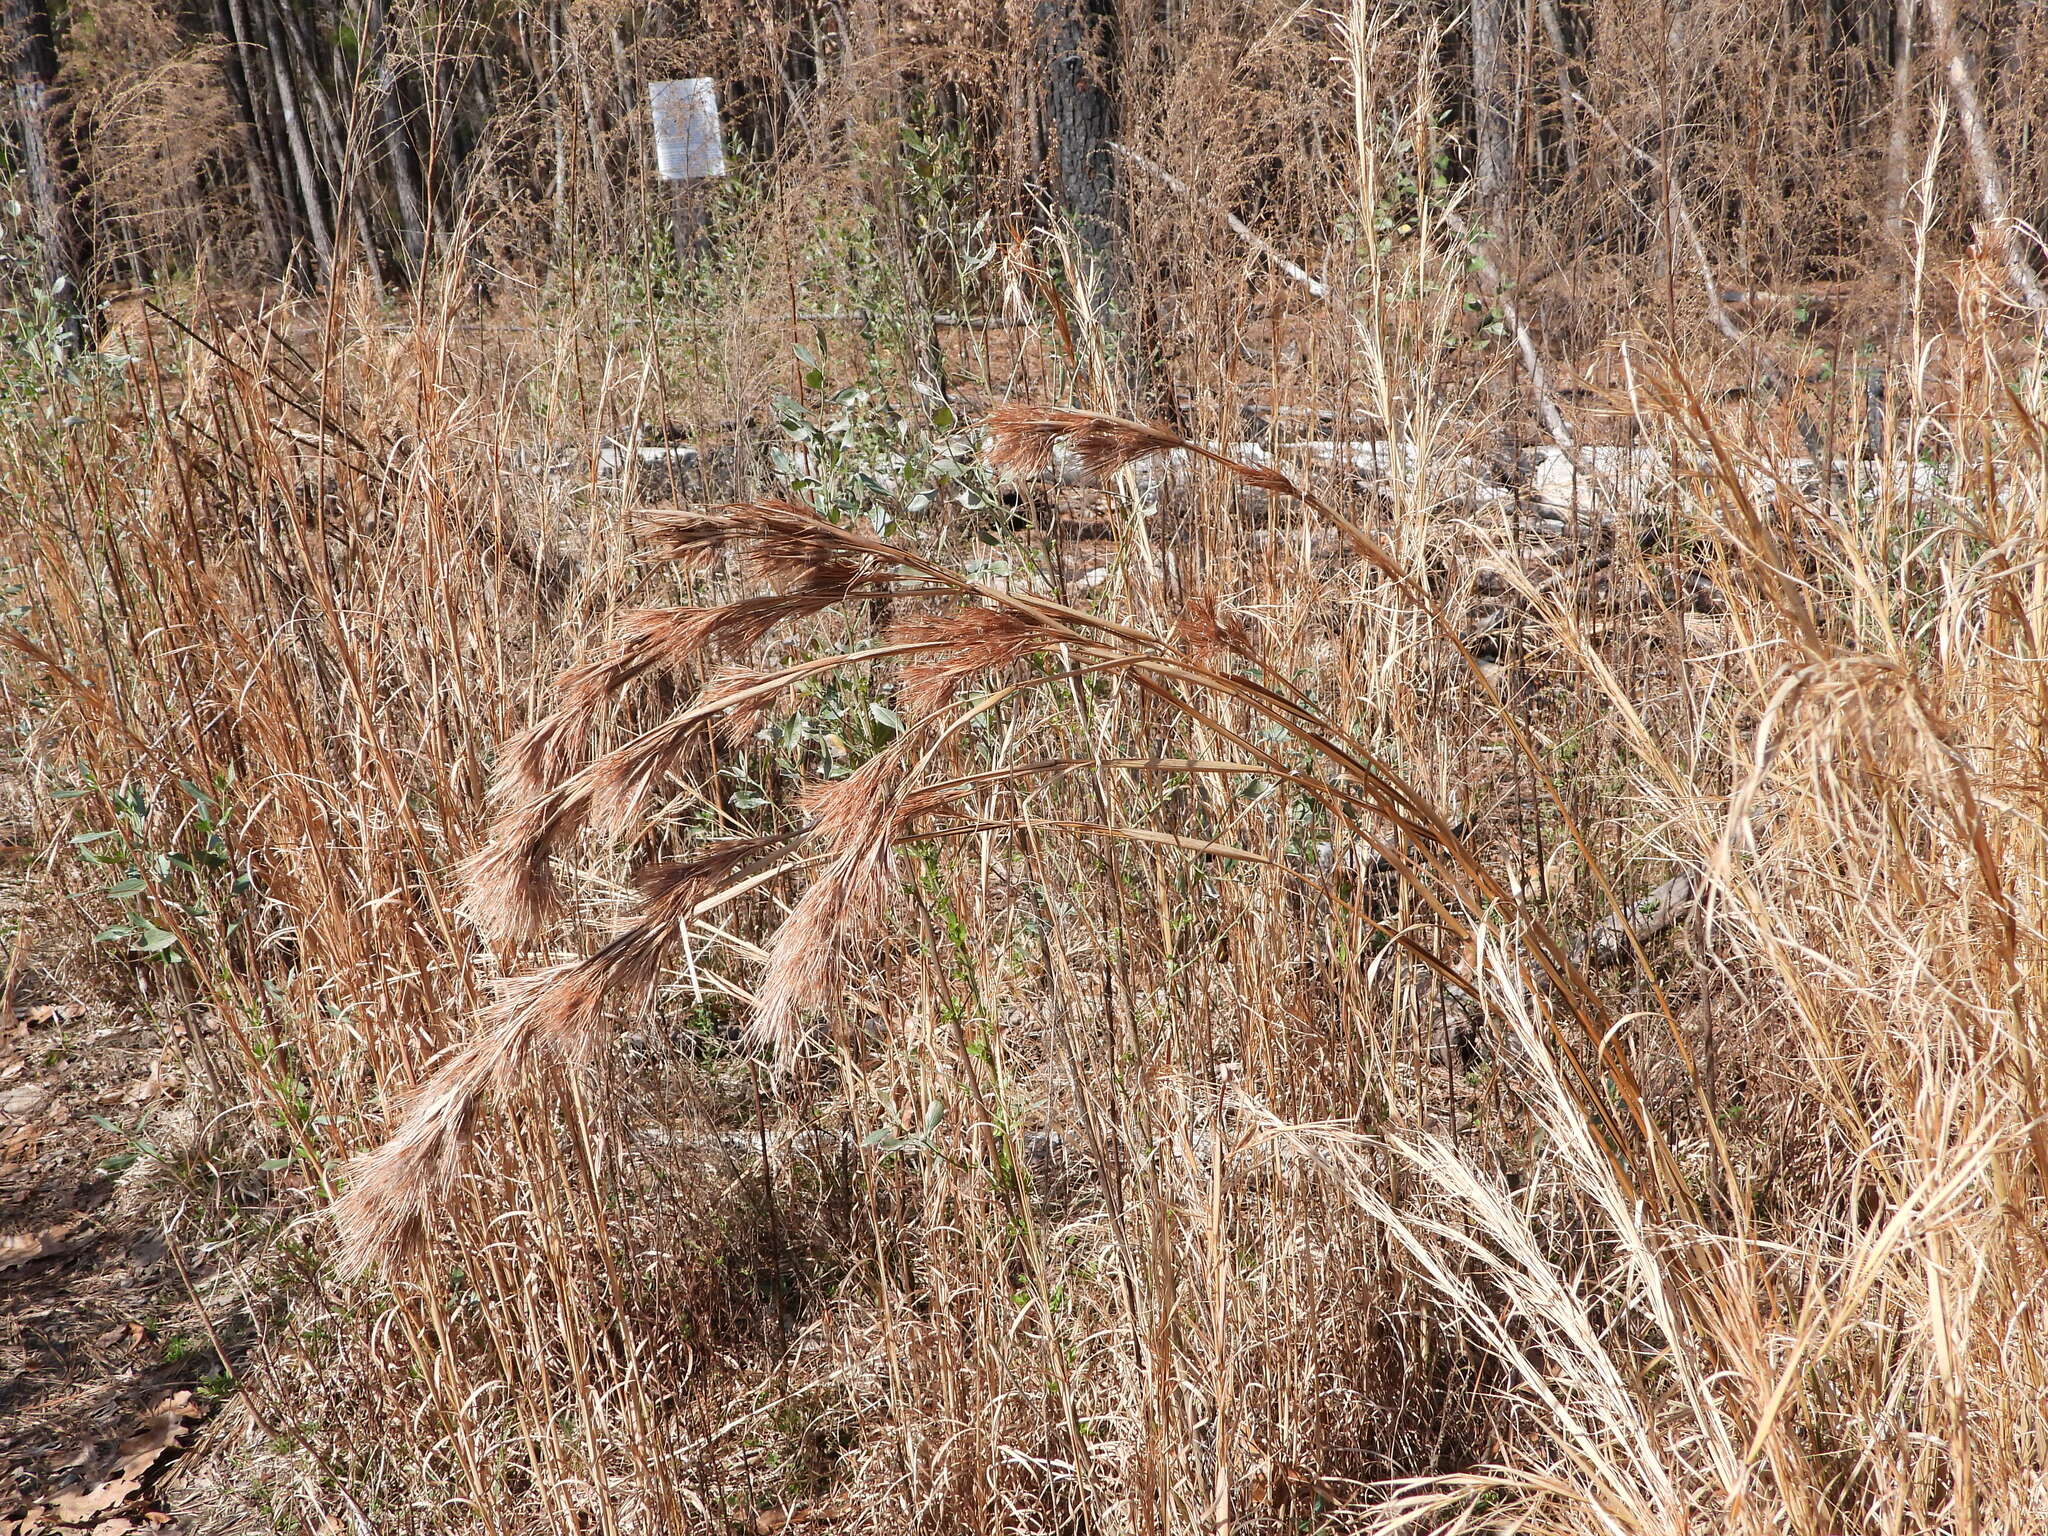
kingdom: Plantae
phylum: Tracheophyta
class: Liliopsida
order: Poales
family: Poaceae
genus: Andropogon
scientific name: Andropogon glomeratus
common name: Bushy beard grass
